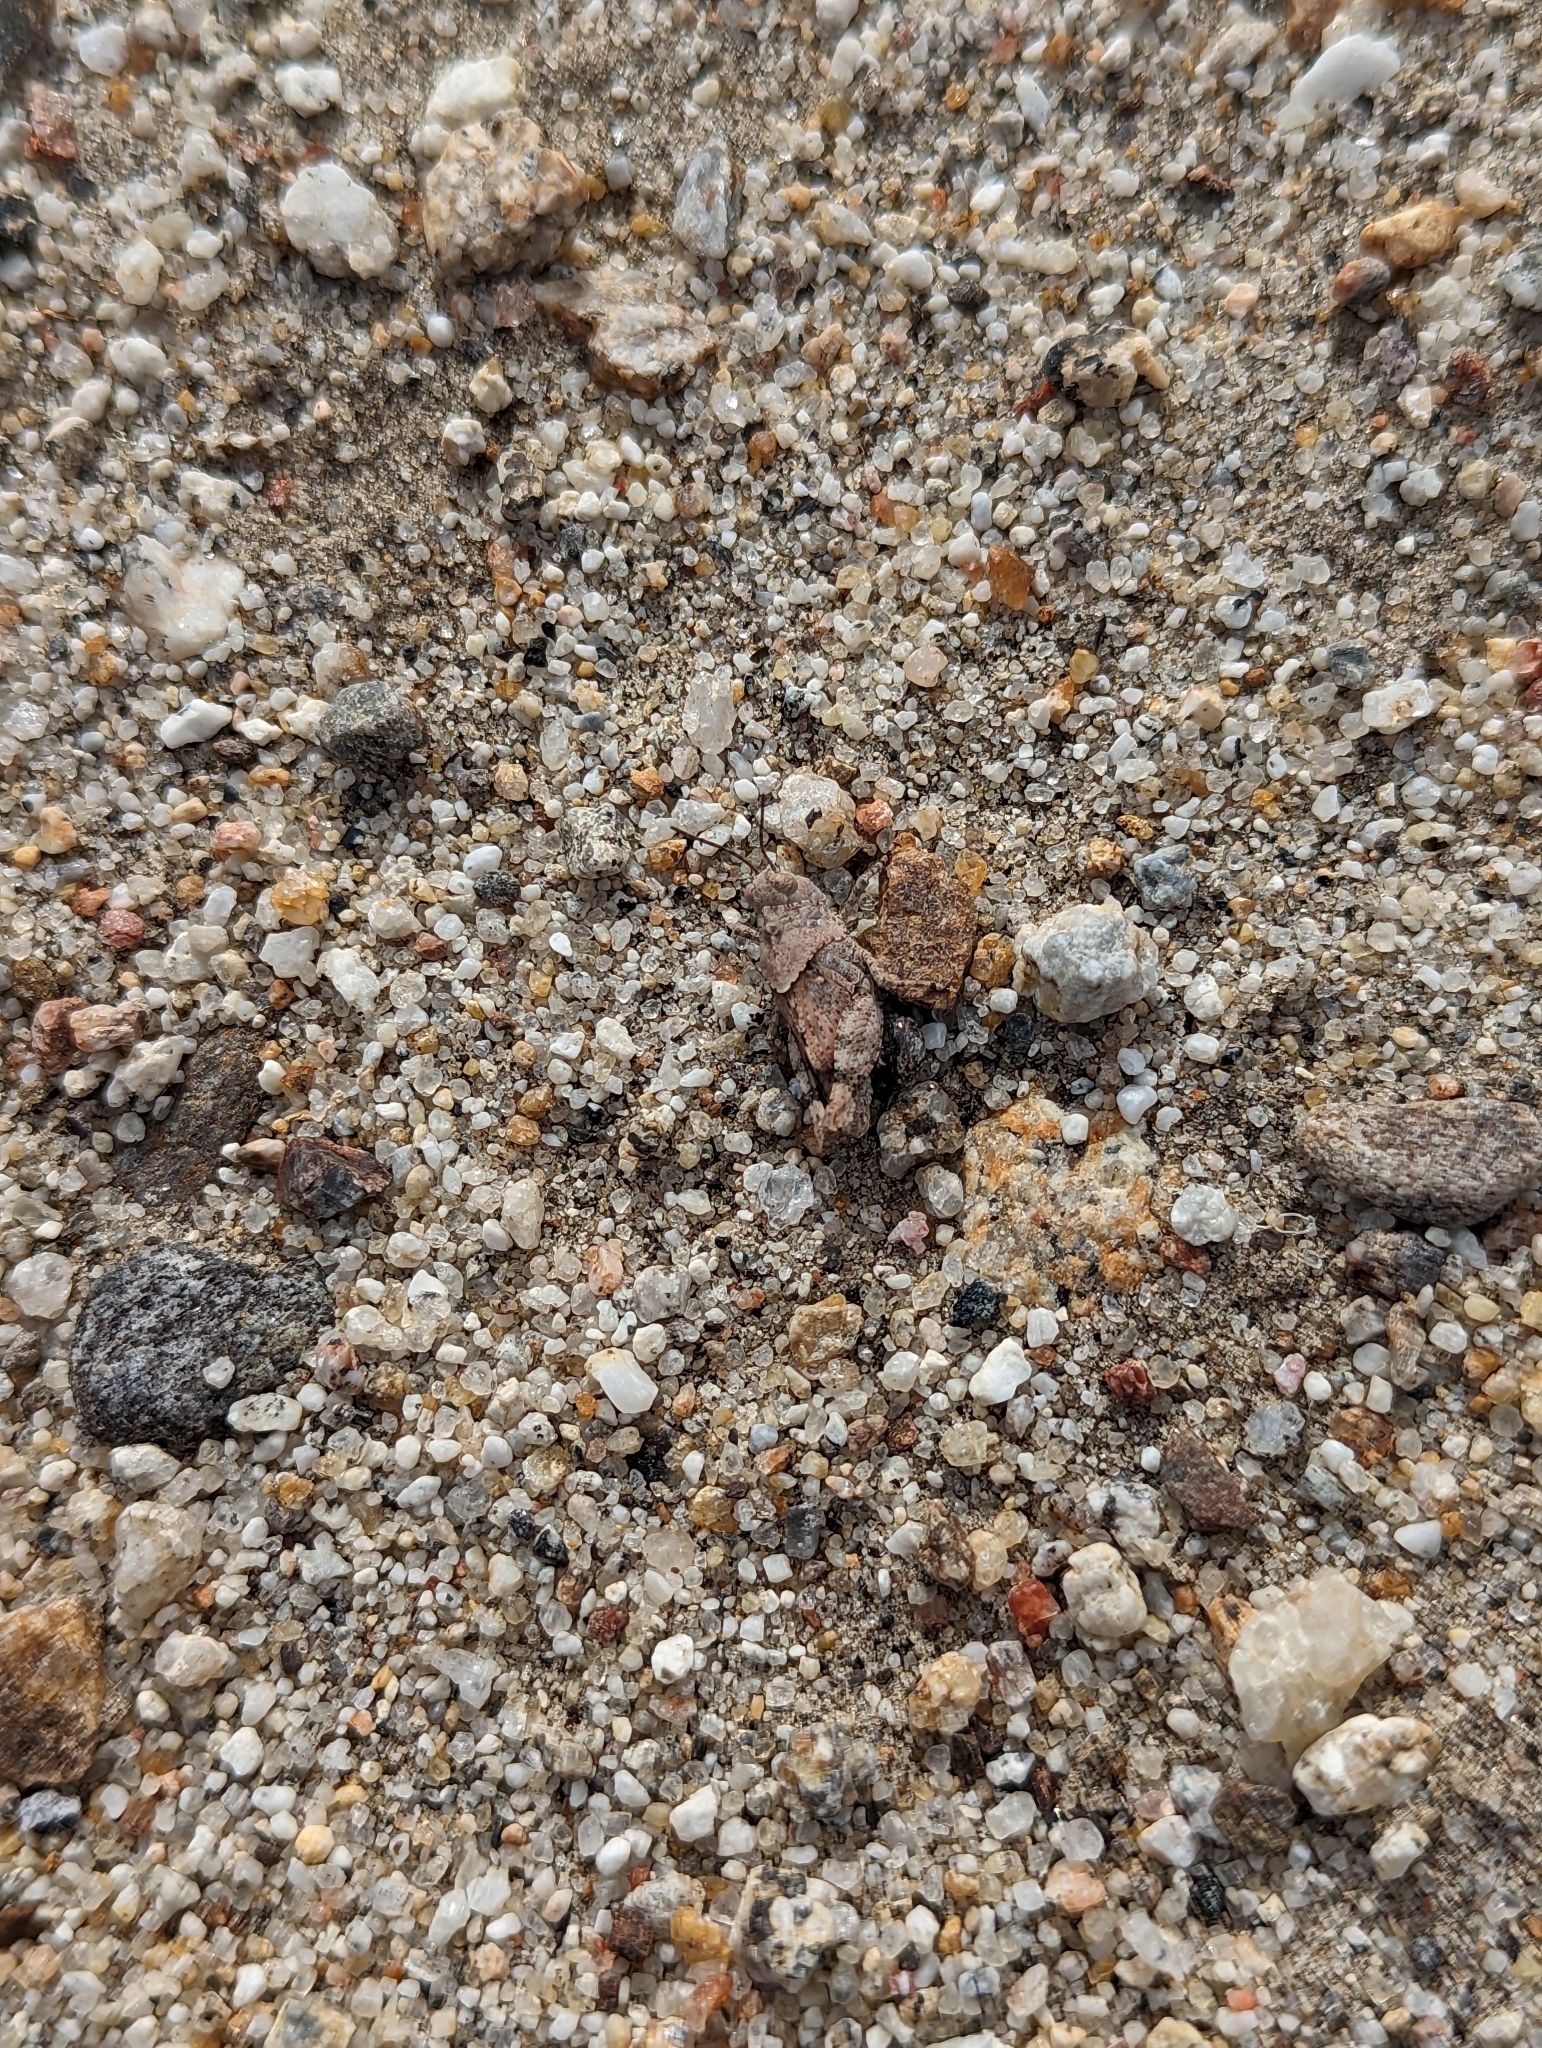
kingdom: Animalia
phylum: Arthropoda
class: Insecta
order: Orthoptera
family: Acrididae
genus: Trimerotropis
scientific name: Trimerotropis pallidipennis
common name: Pallid-winged grasshopper
